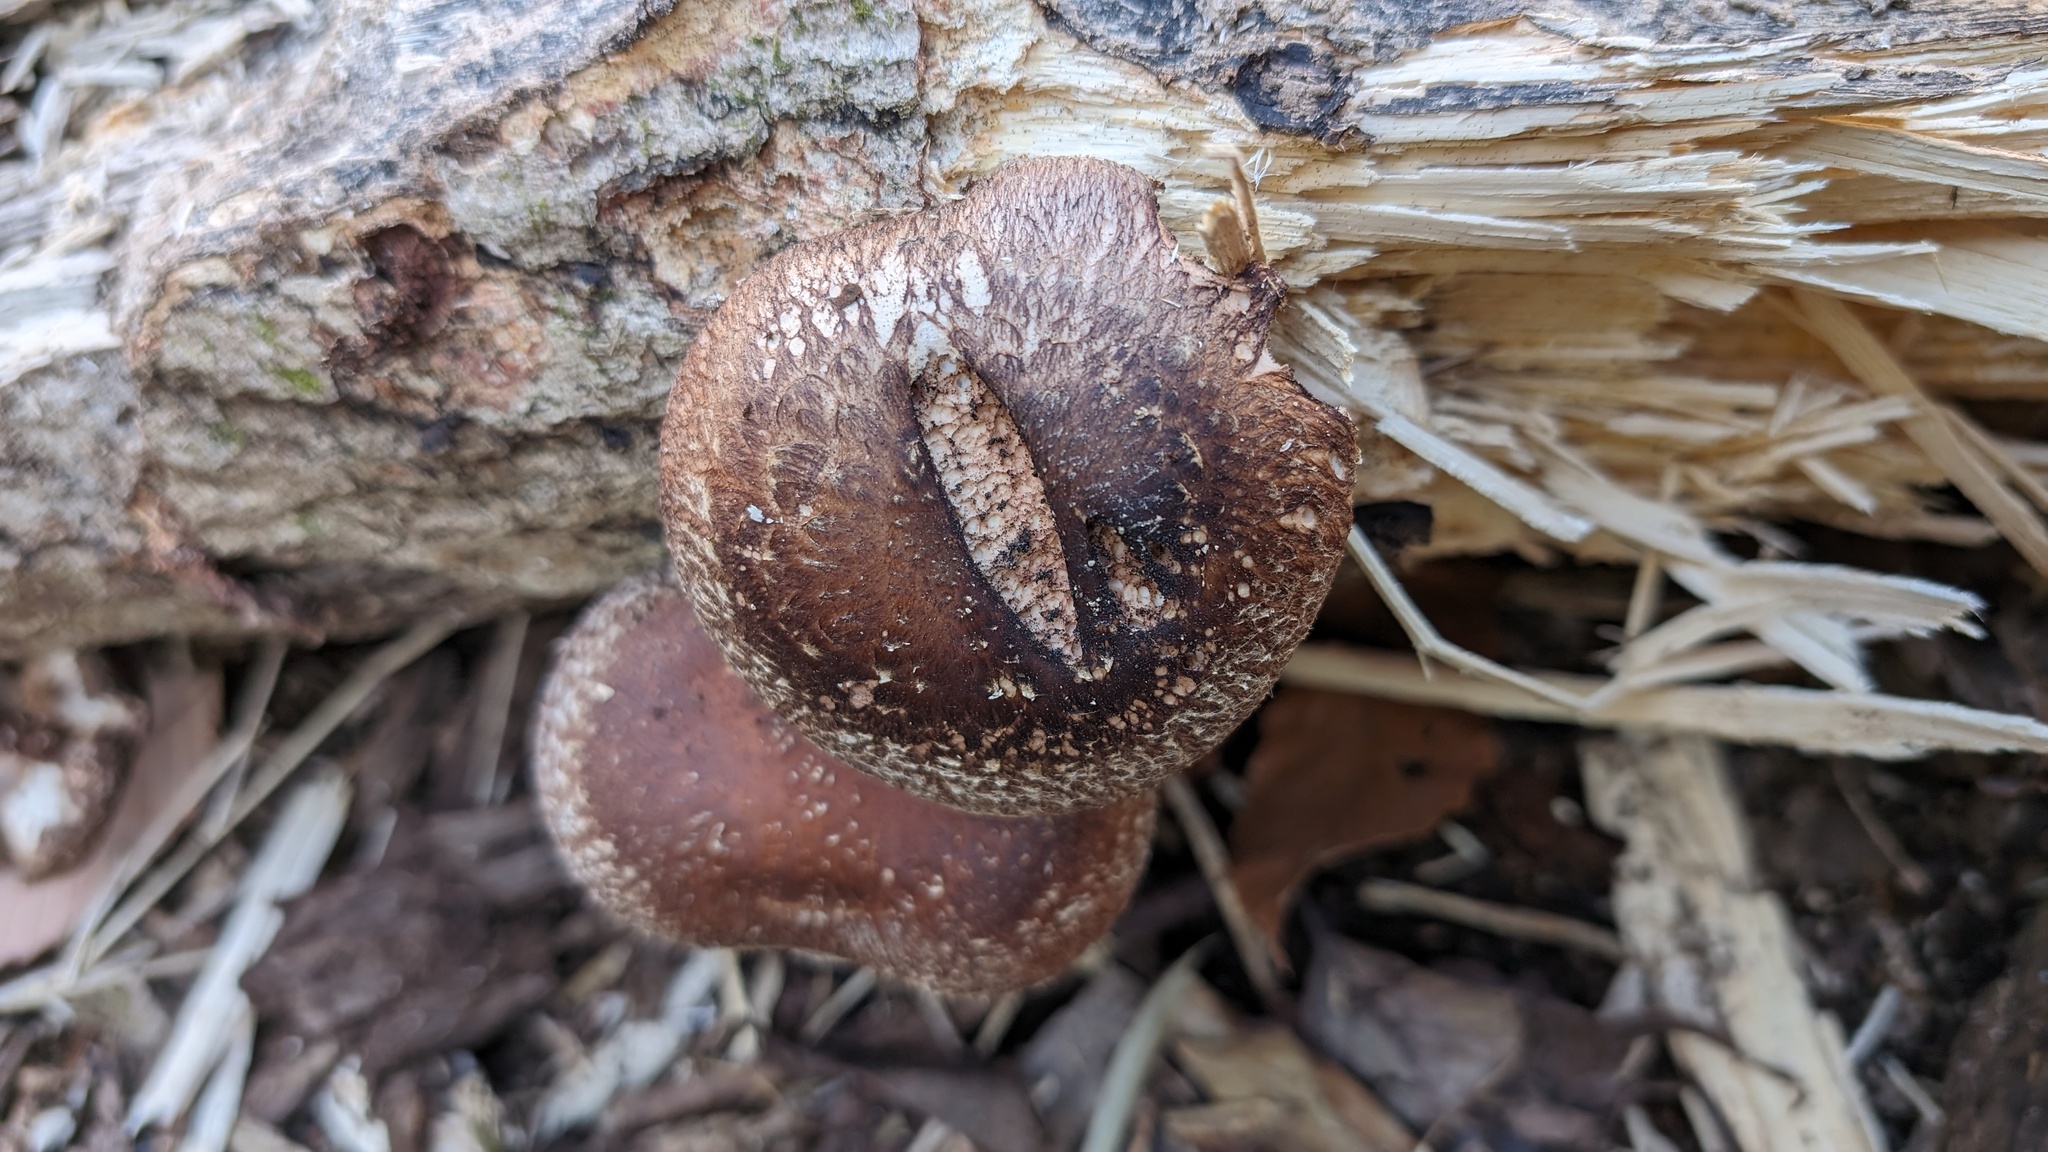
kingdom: Fungi
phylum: Basidiomycota
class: Agaricomycetes
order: Agaricales
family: Omphalotaceae
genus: Lentinula
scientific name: Lentinula edodes
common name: Shiitake
